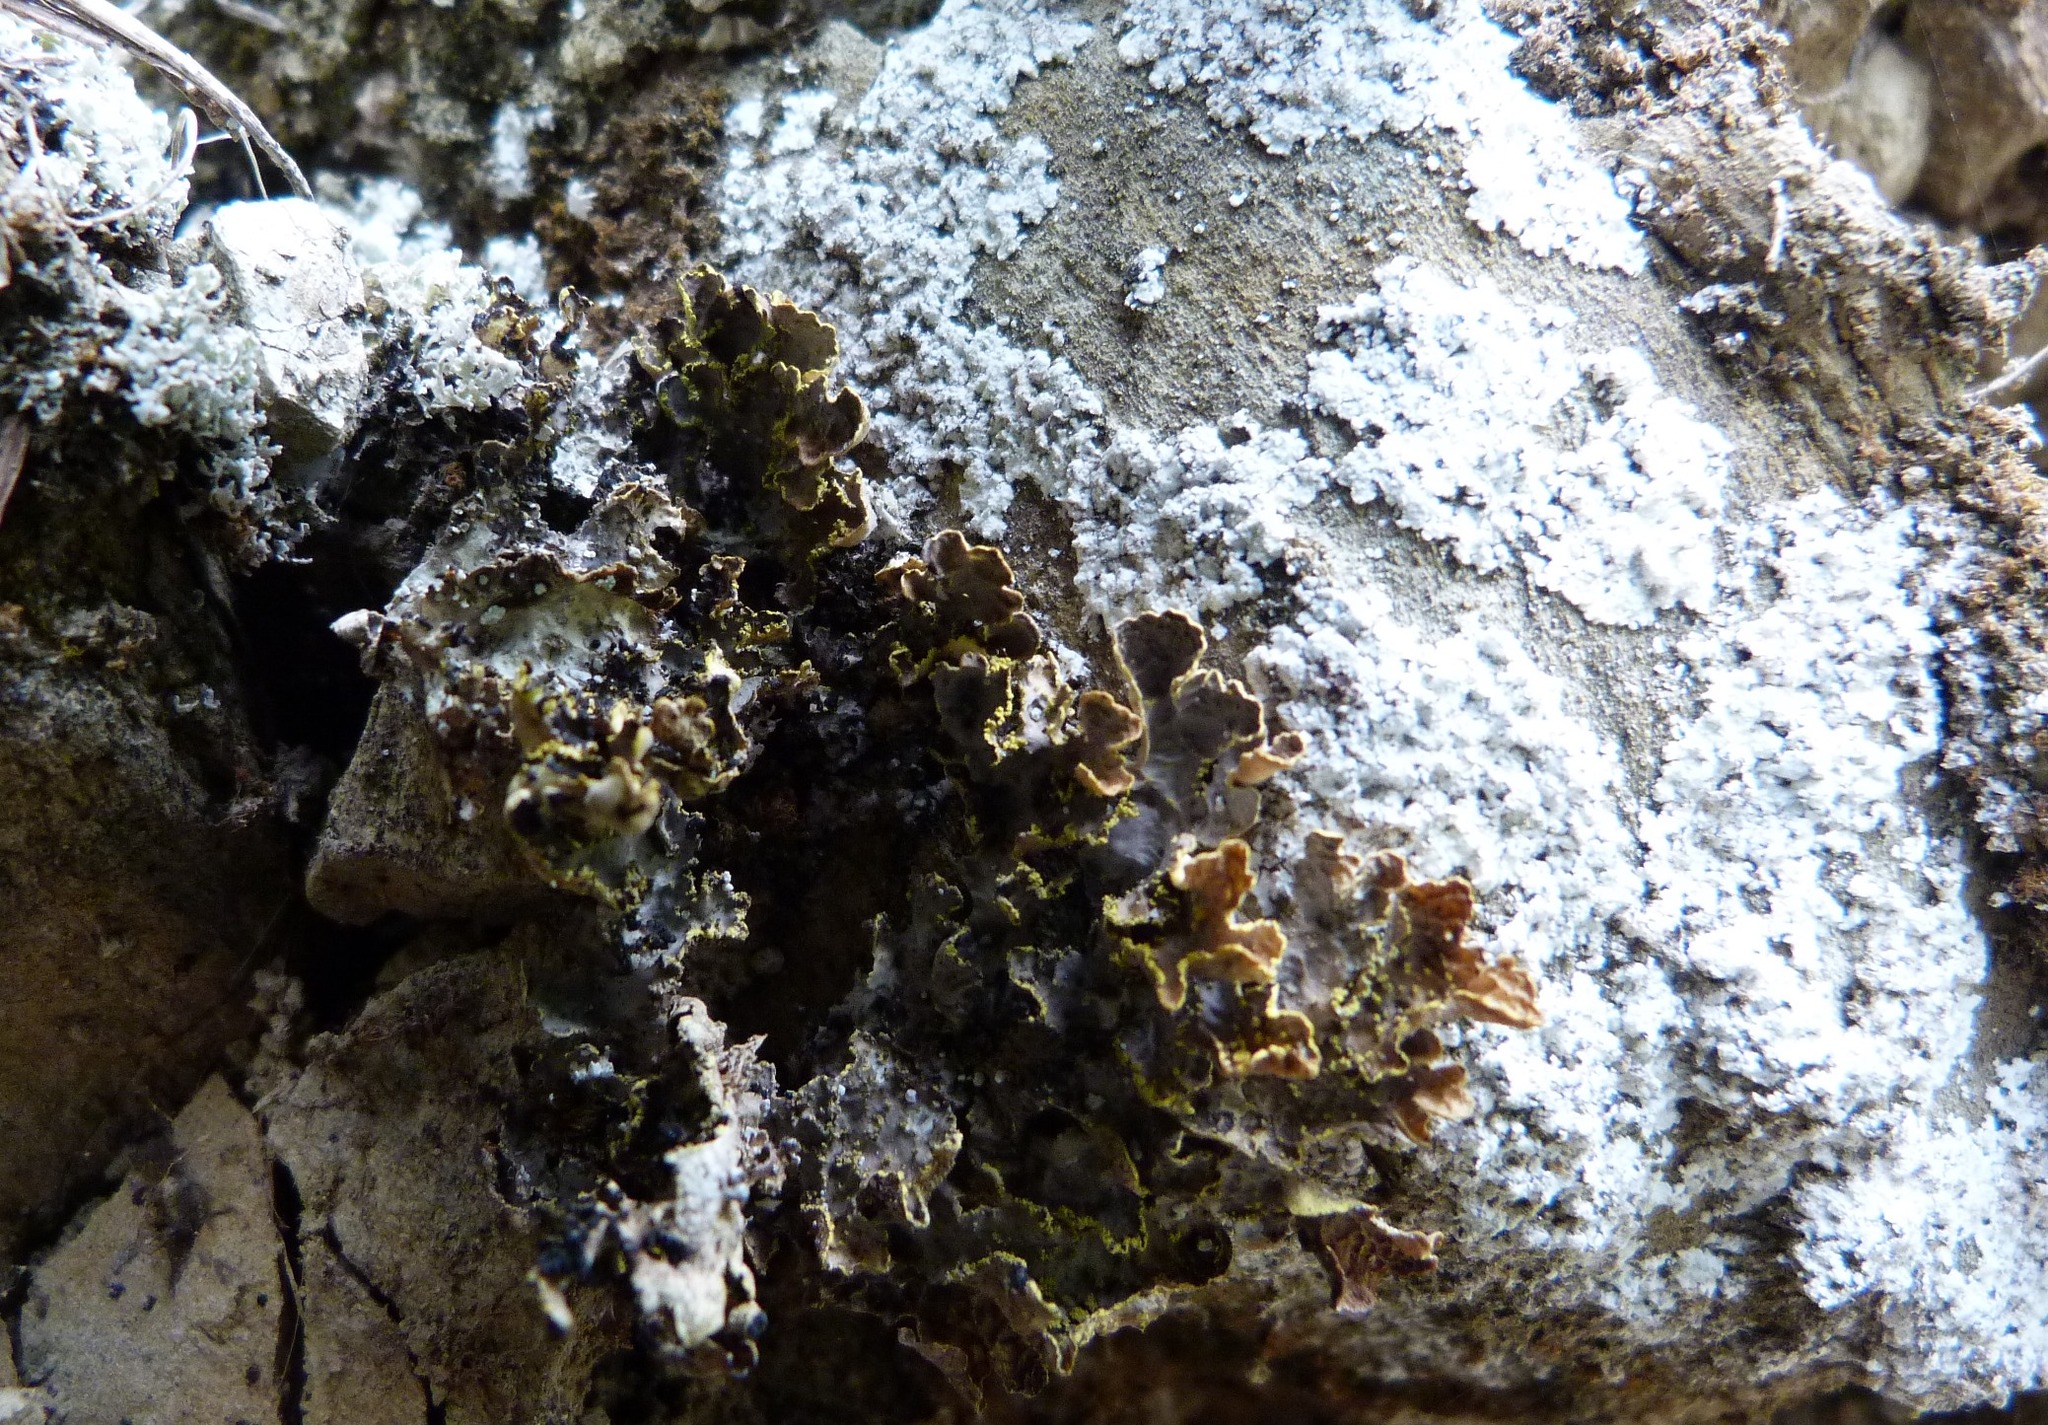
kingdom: Fungi
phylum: Ascomycota
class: Lecanoromycetes
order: Peltigerales
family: Lobariaceae
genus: Pseudocyphellaria
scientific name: Pseudocyphellaria crocata
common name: Golden specklebelly
